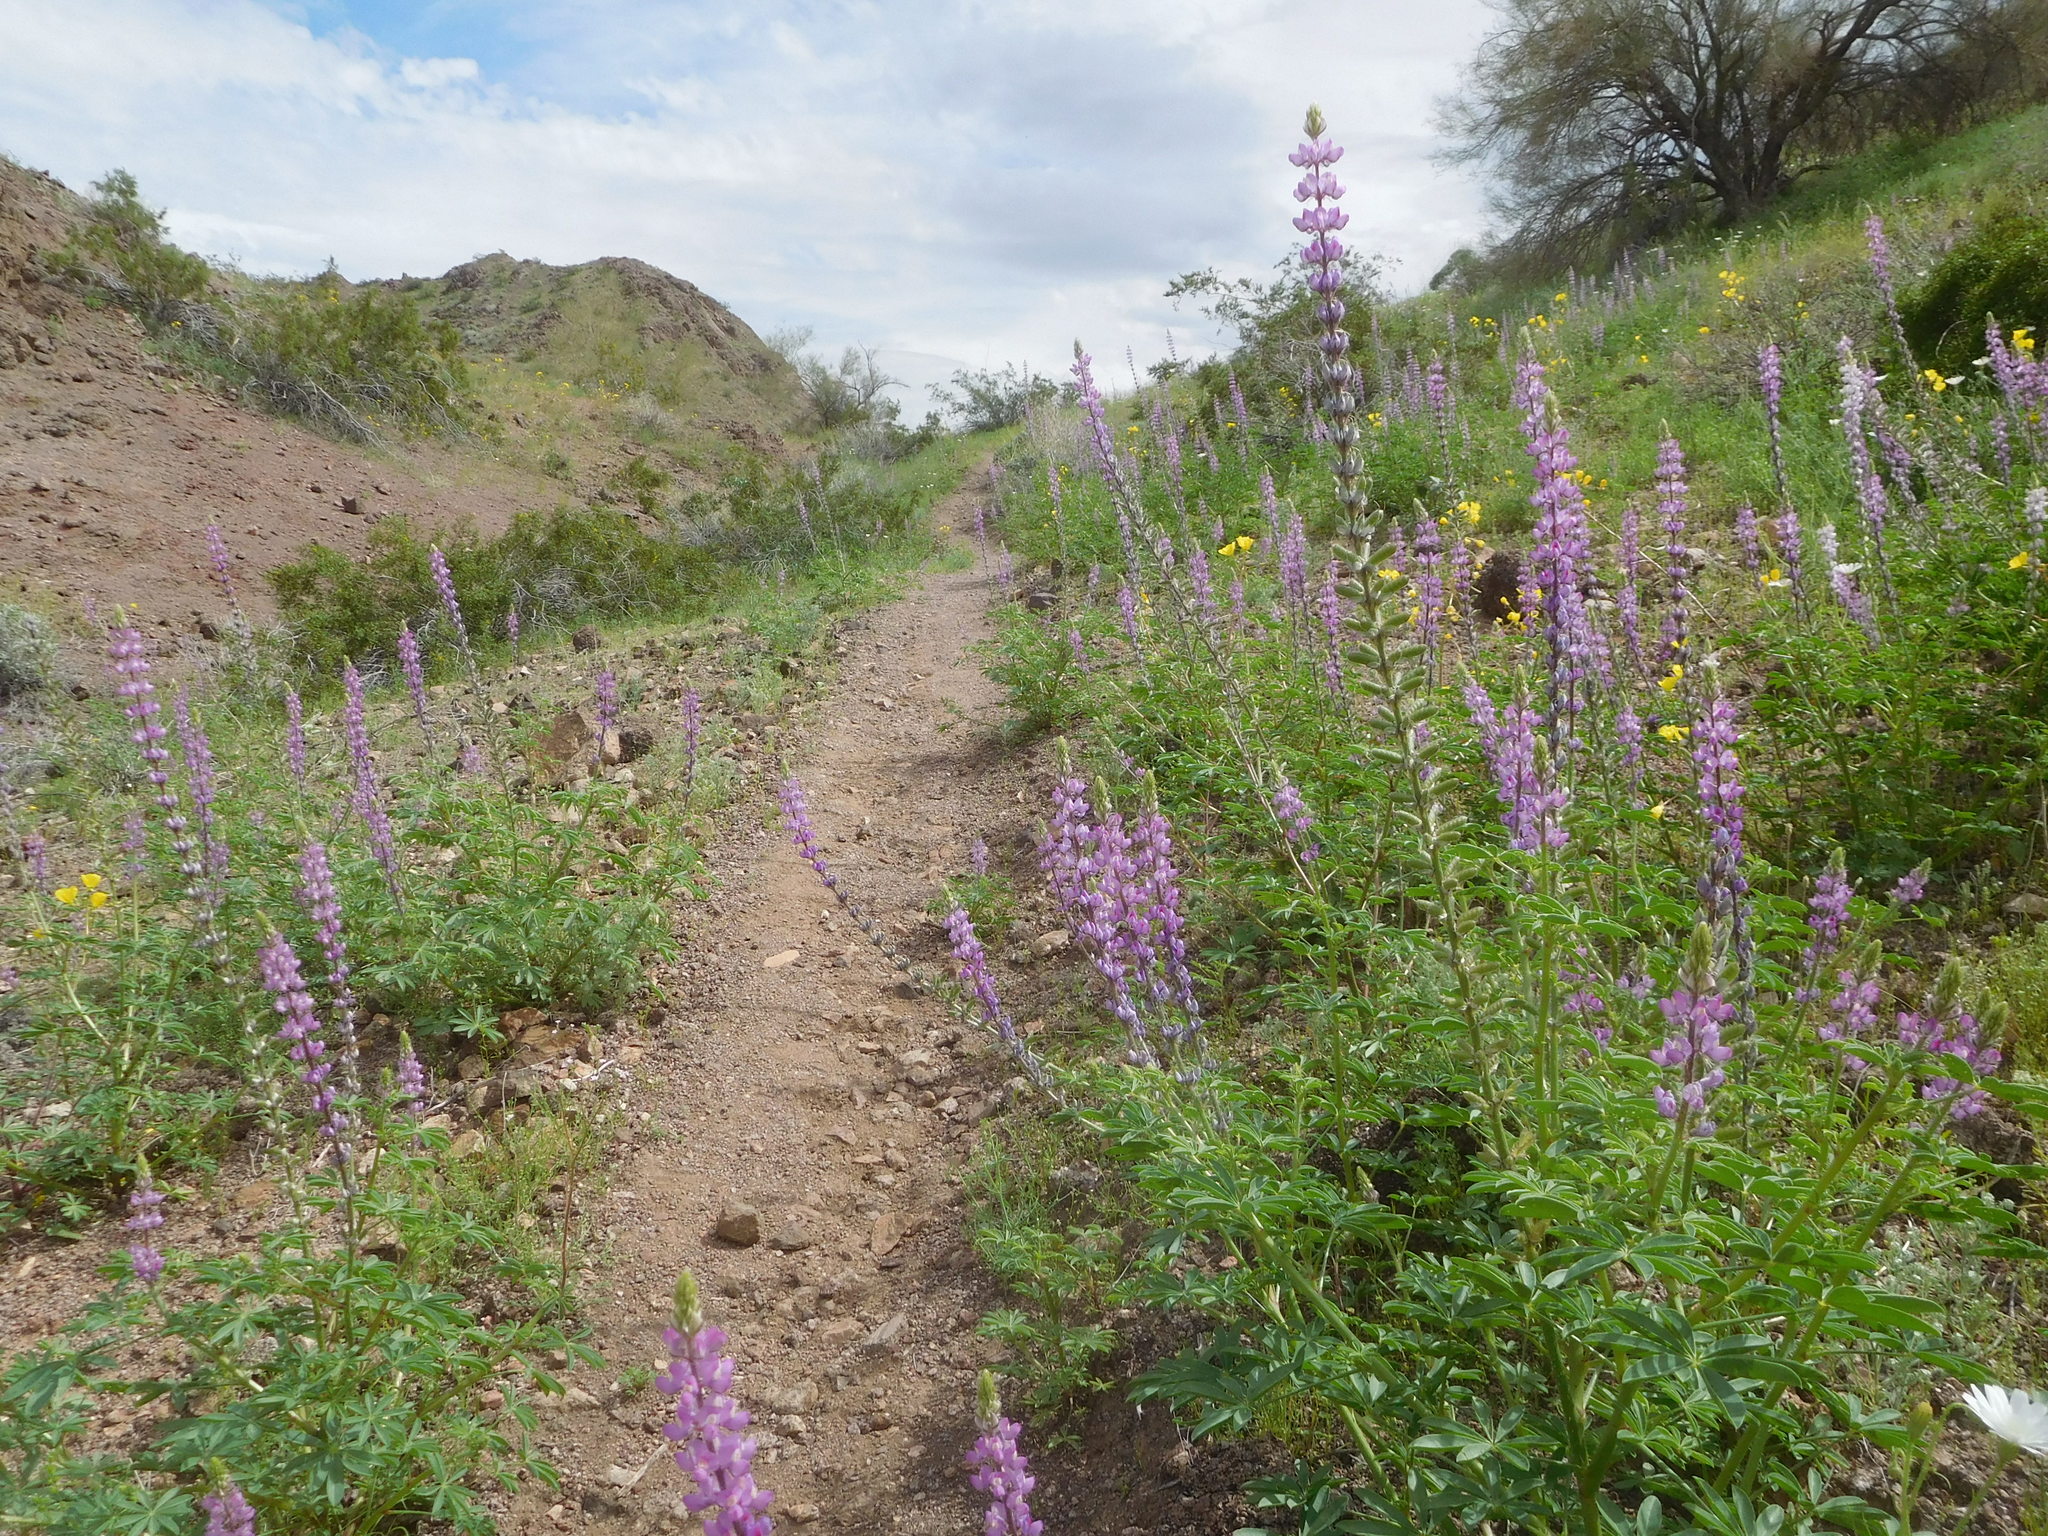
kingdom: Plantae
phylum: Tracheophyta
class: Magnoliopsida
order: Fabales
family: Fabaceae
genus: Lupinus
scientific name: Lupinus arizonicus
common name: Arizona lupine
